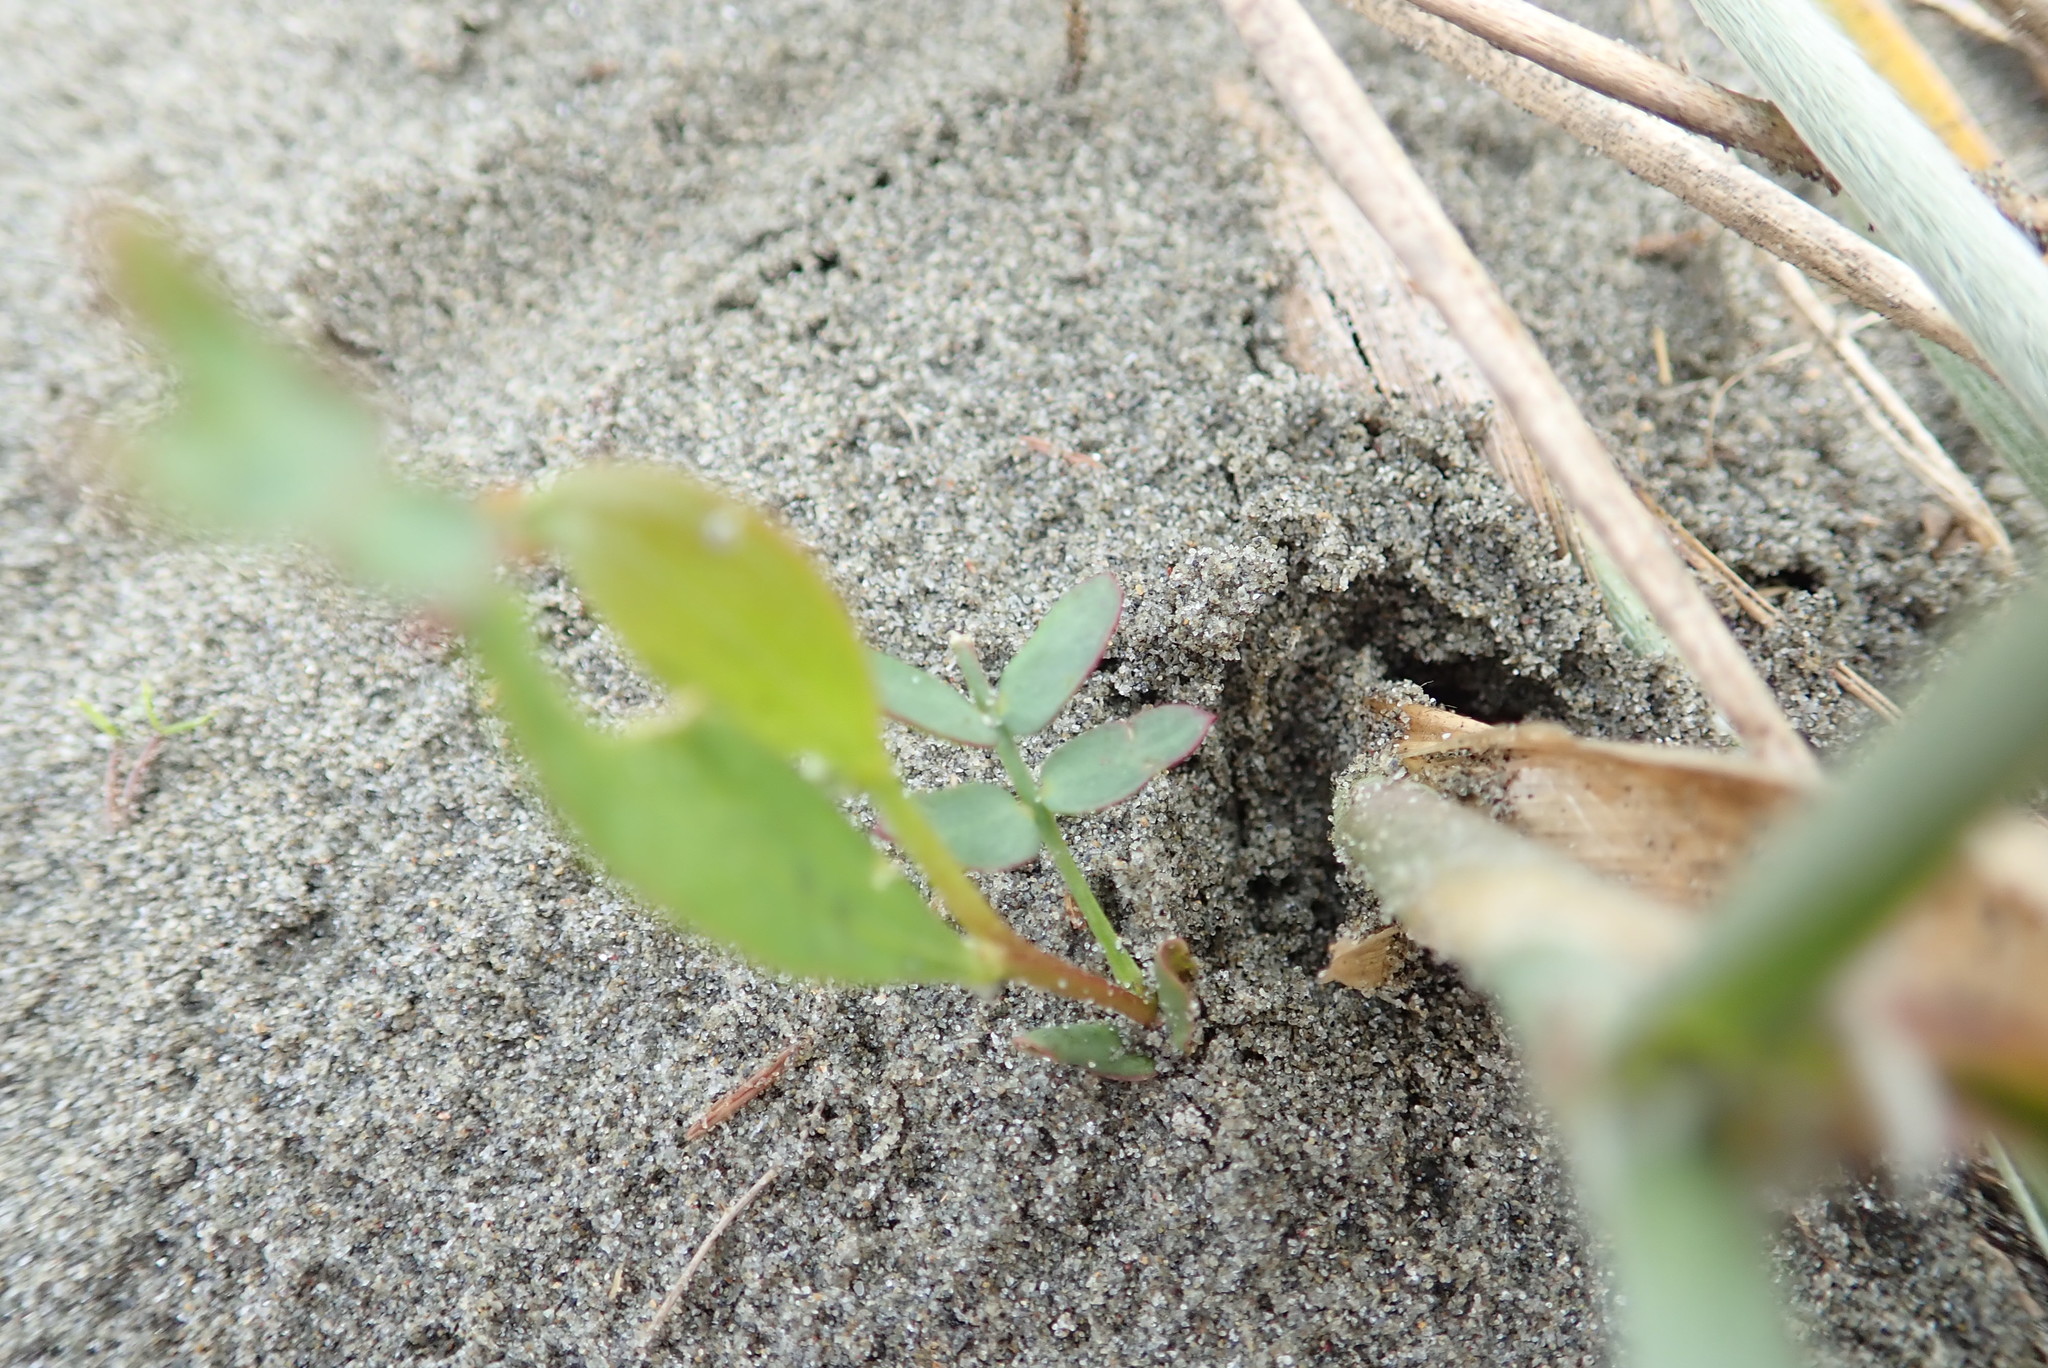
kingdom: Plantae
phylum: Tracheophyta
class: Magnoliopsida
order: Fabales
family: Fabaceae
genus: Acacia
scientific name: Acacia longifolia
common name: Sydney golden wattle
